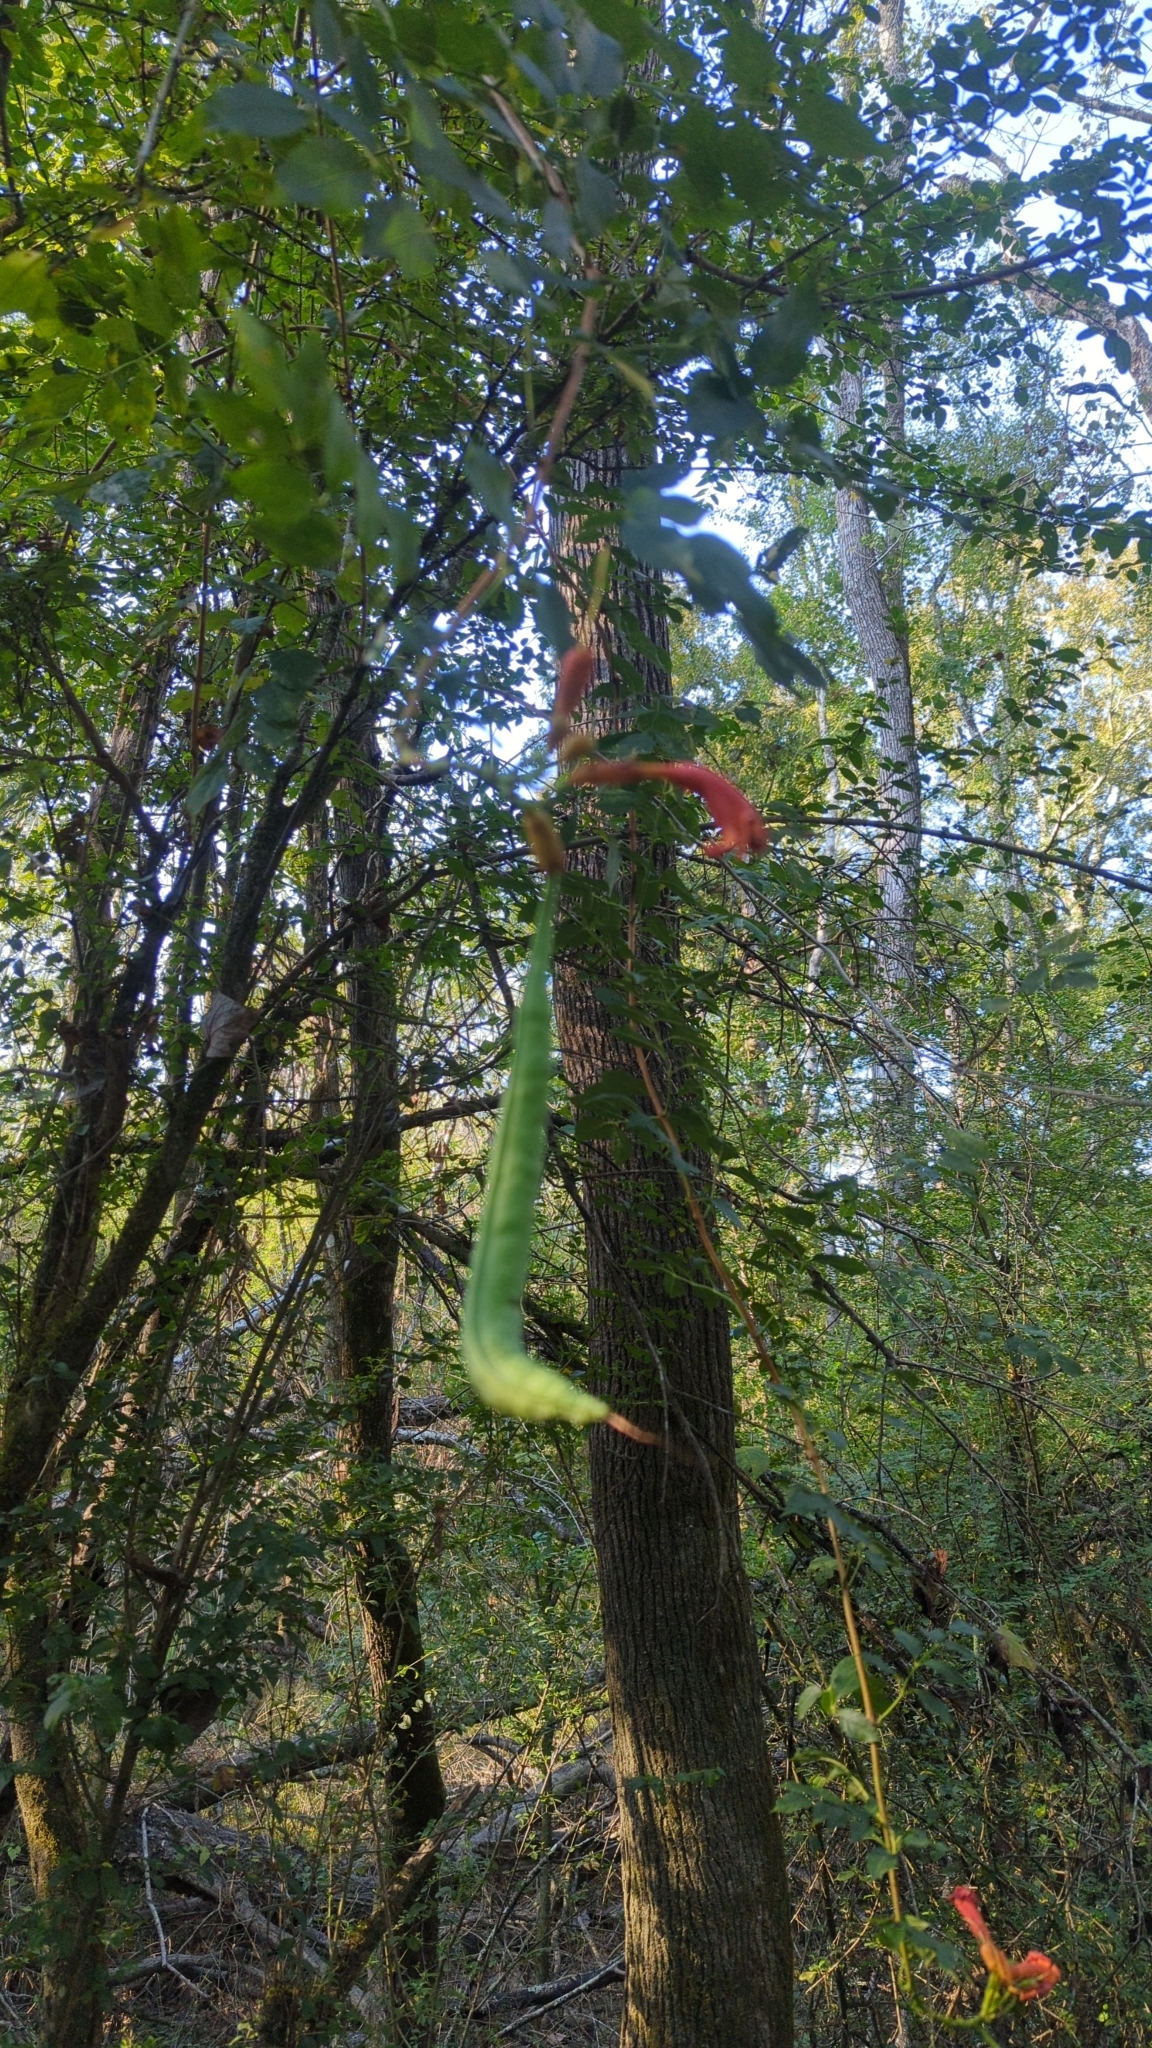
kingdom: Plantae
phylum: Tracheophyta
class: Magnoliopsida
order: Lamiales
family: Bignoniaceae
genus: Campsis
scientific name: Campsis radicans
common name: Trumpet-creeper
